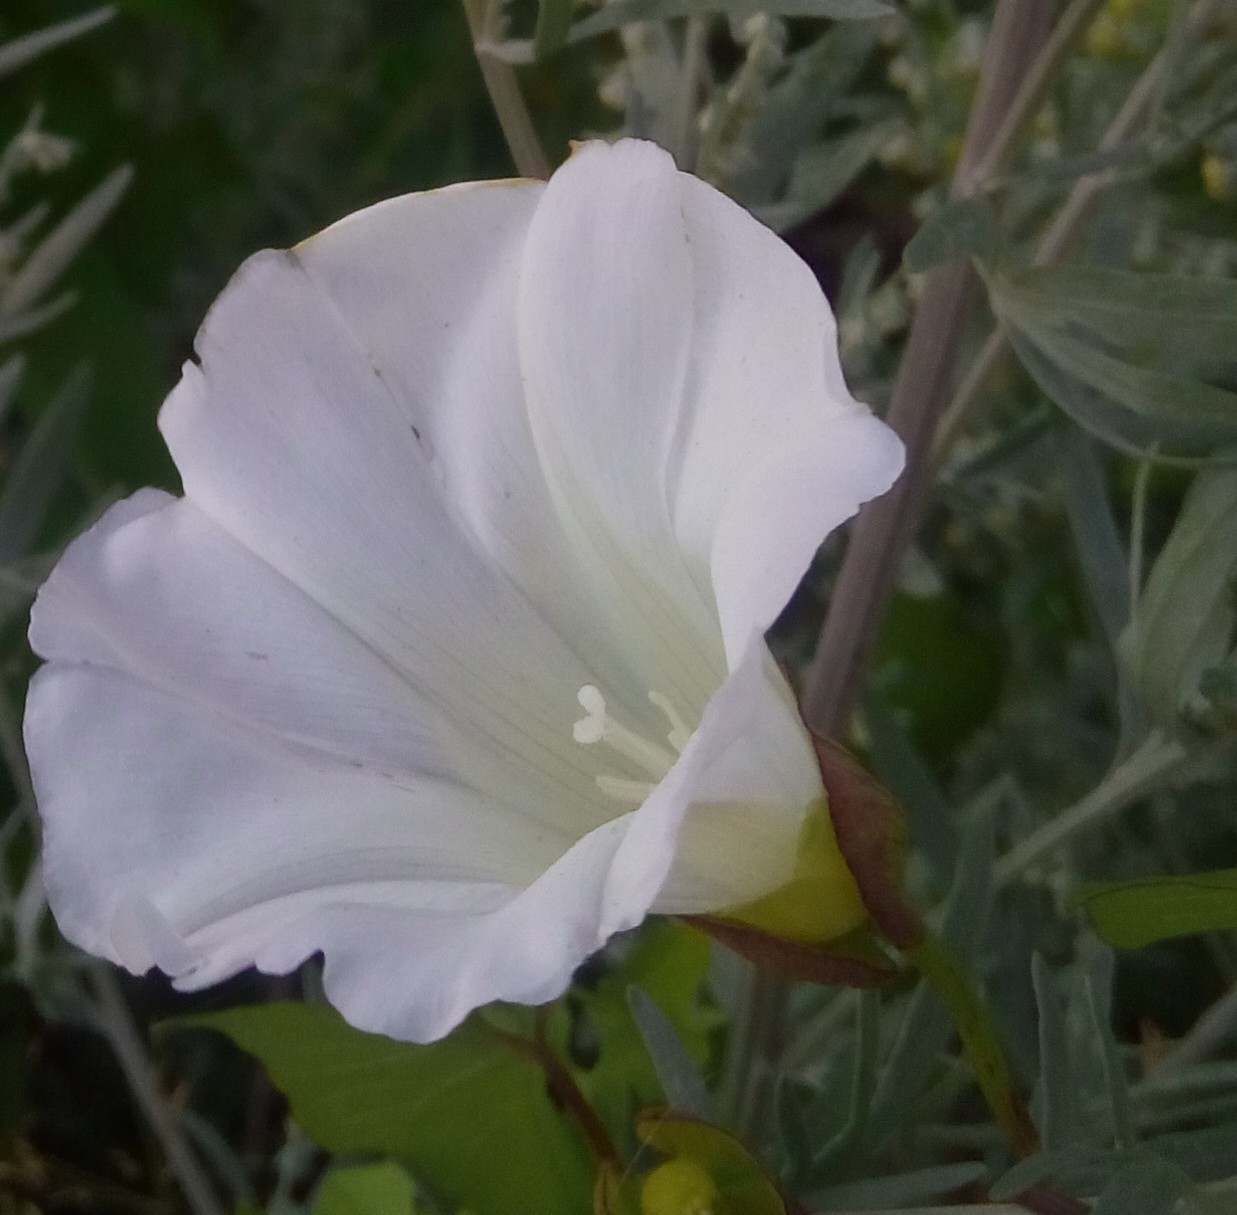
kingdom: Plantae
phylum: Tracheophyta
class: Magnoliopsida
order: Solanales
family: Convolvulaceae
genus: Calystegia
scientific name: Calystegia sepium
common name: Hedge bindweed
